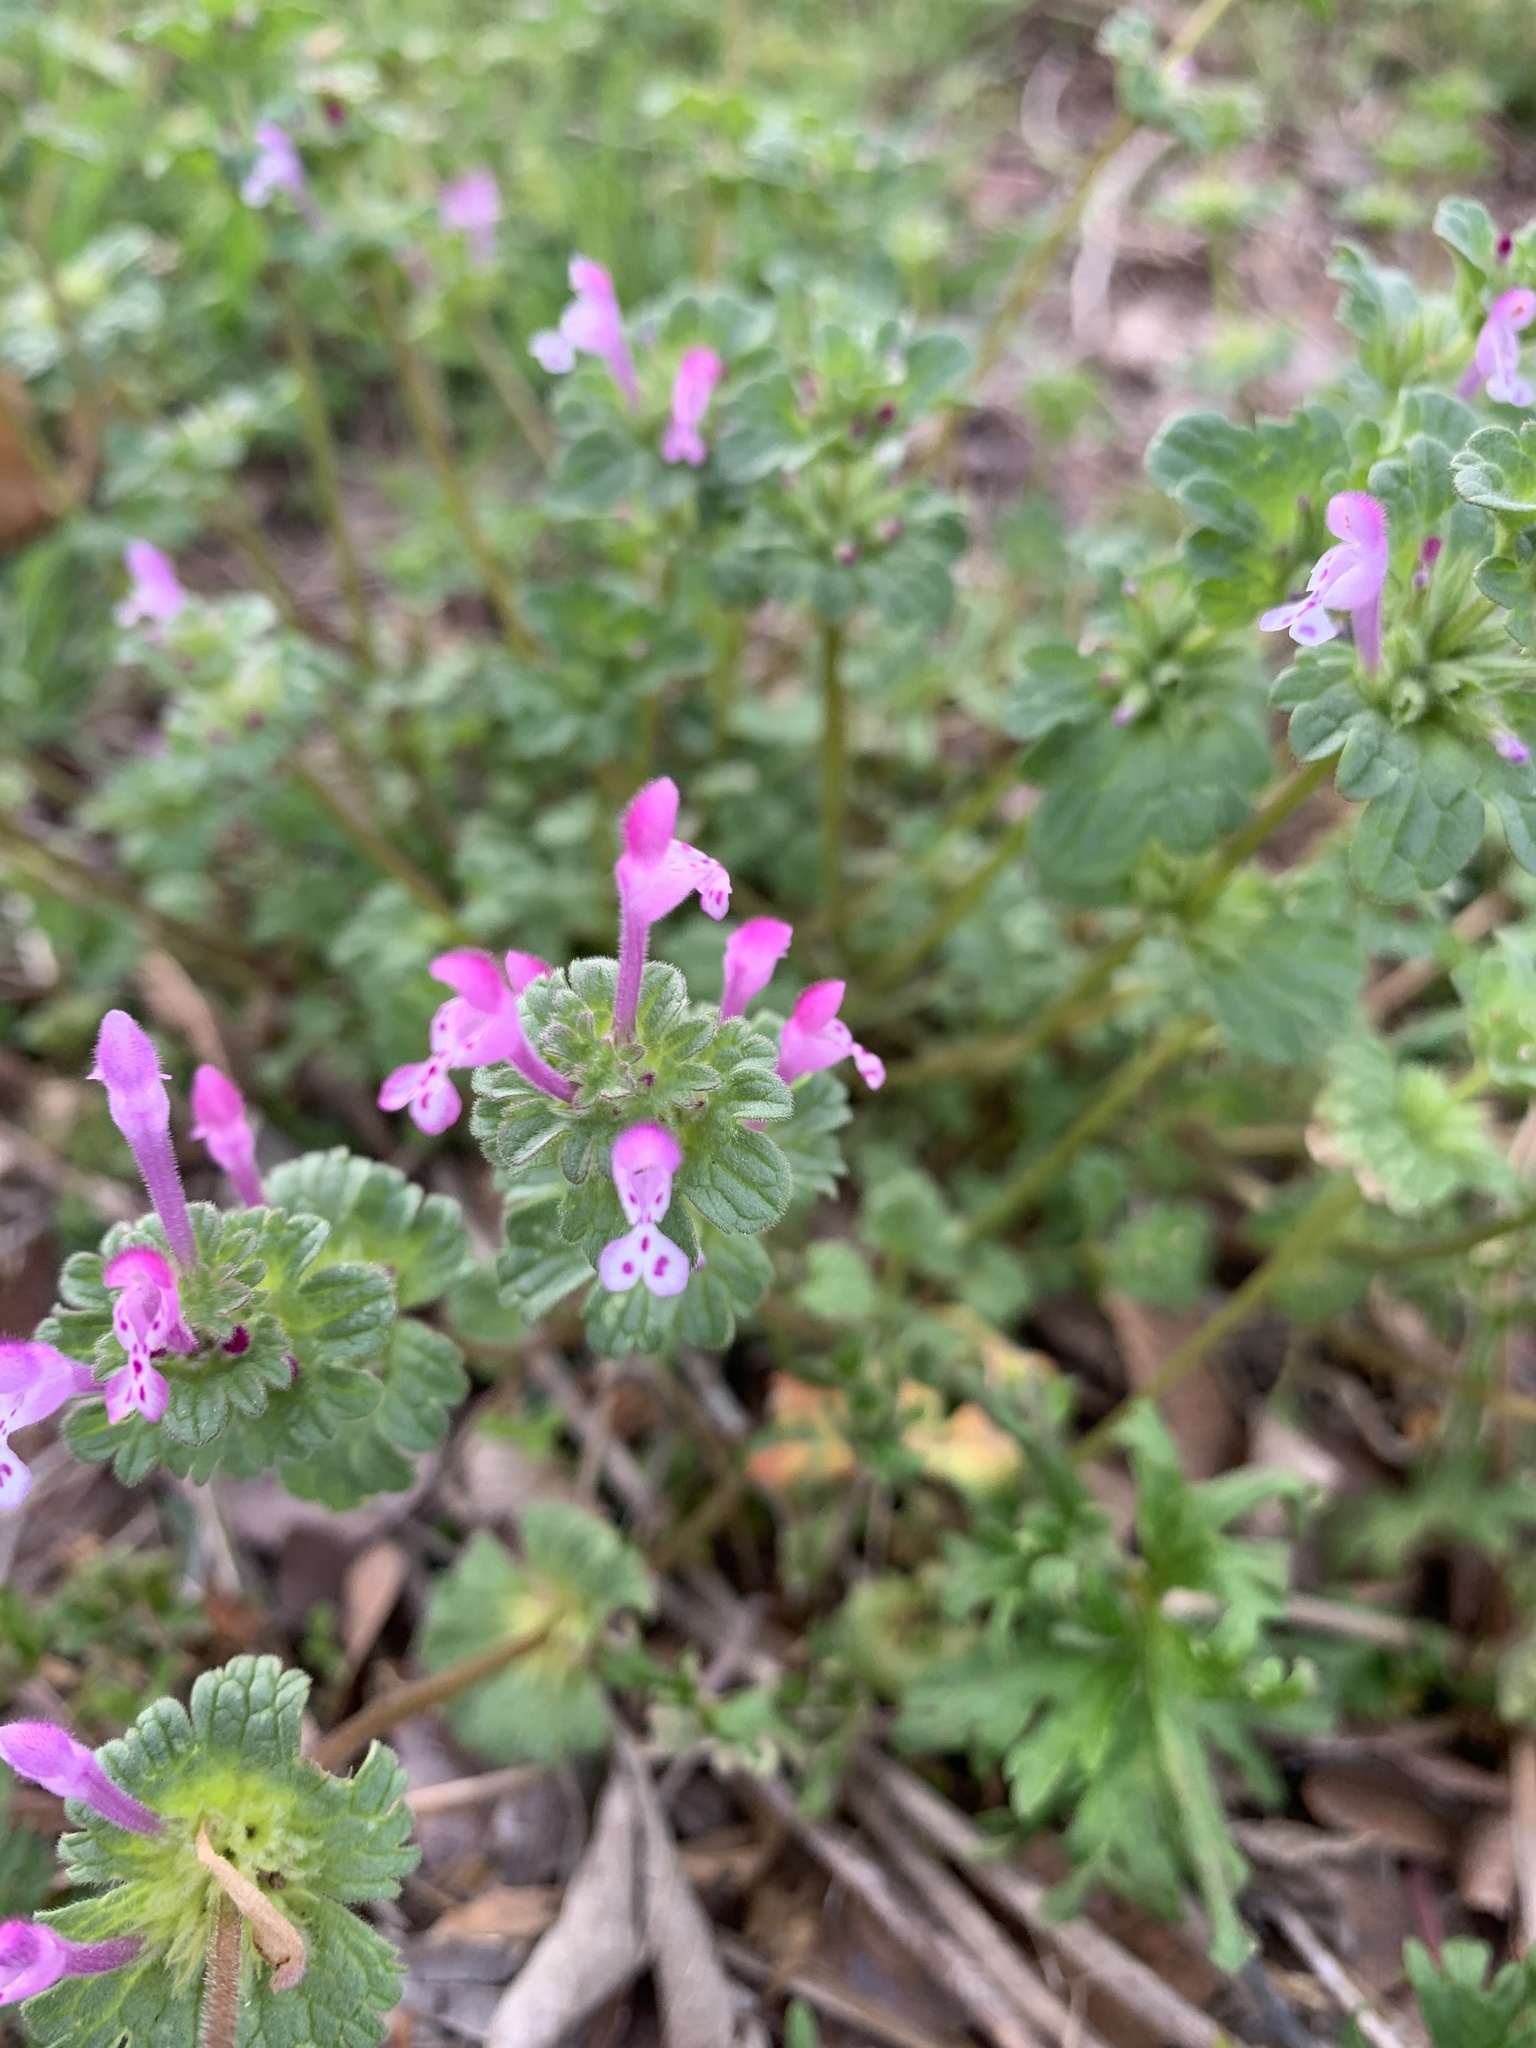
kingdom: Plantae
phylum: Tracheophyta
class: Magnoliopsida
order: Lamiales
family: Lamiaceae
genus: Lamium
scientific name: Lamium amplexicaule
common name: Henbit dead-nettle
